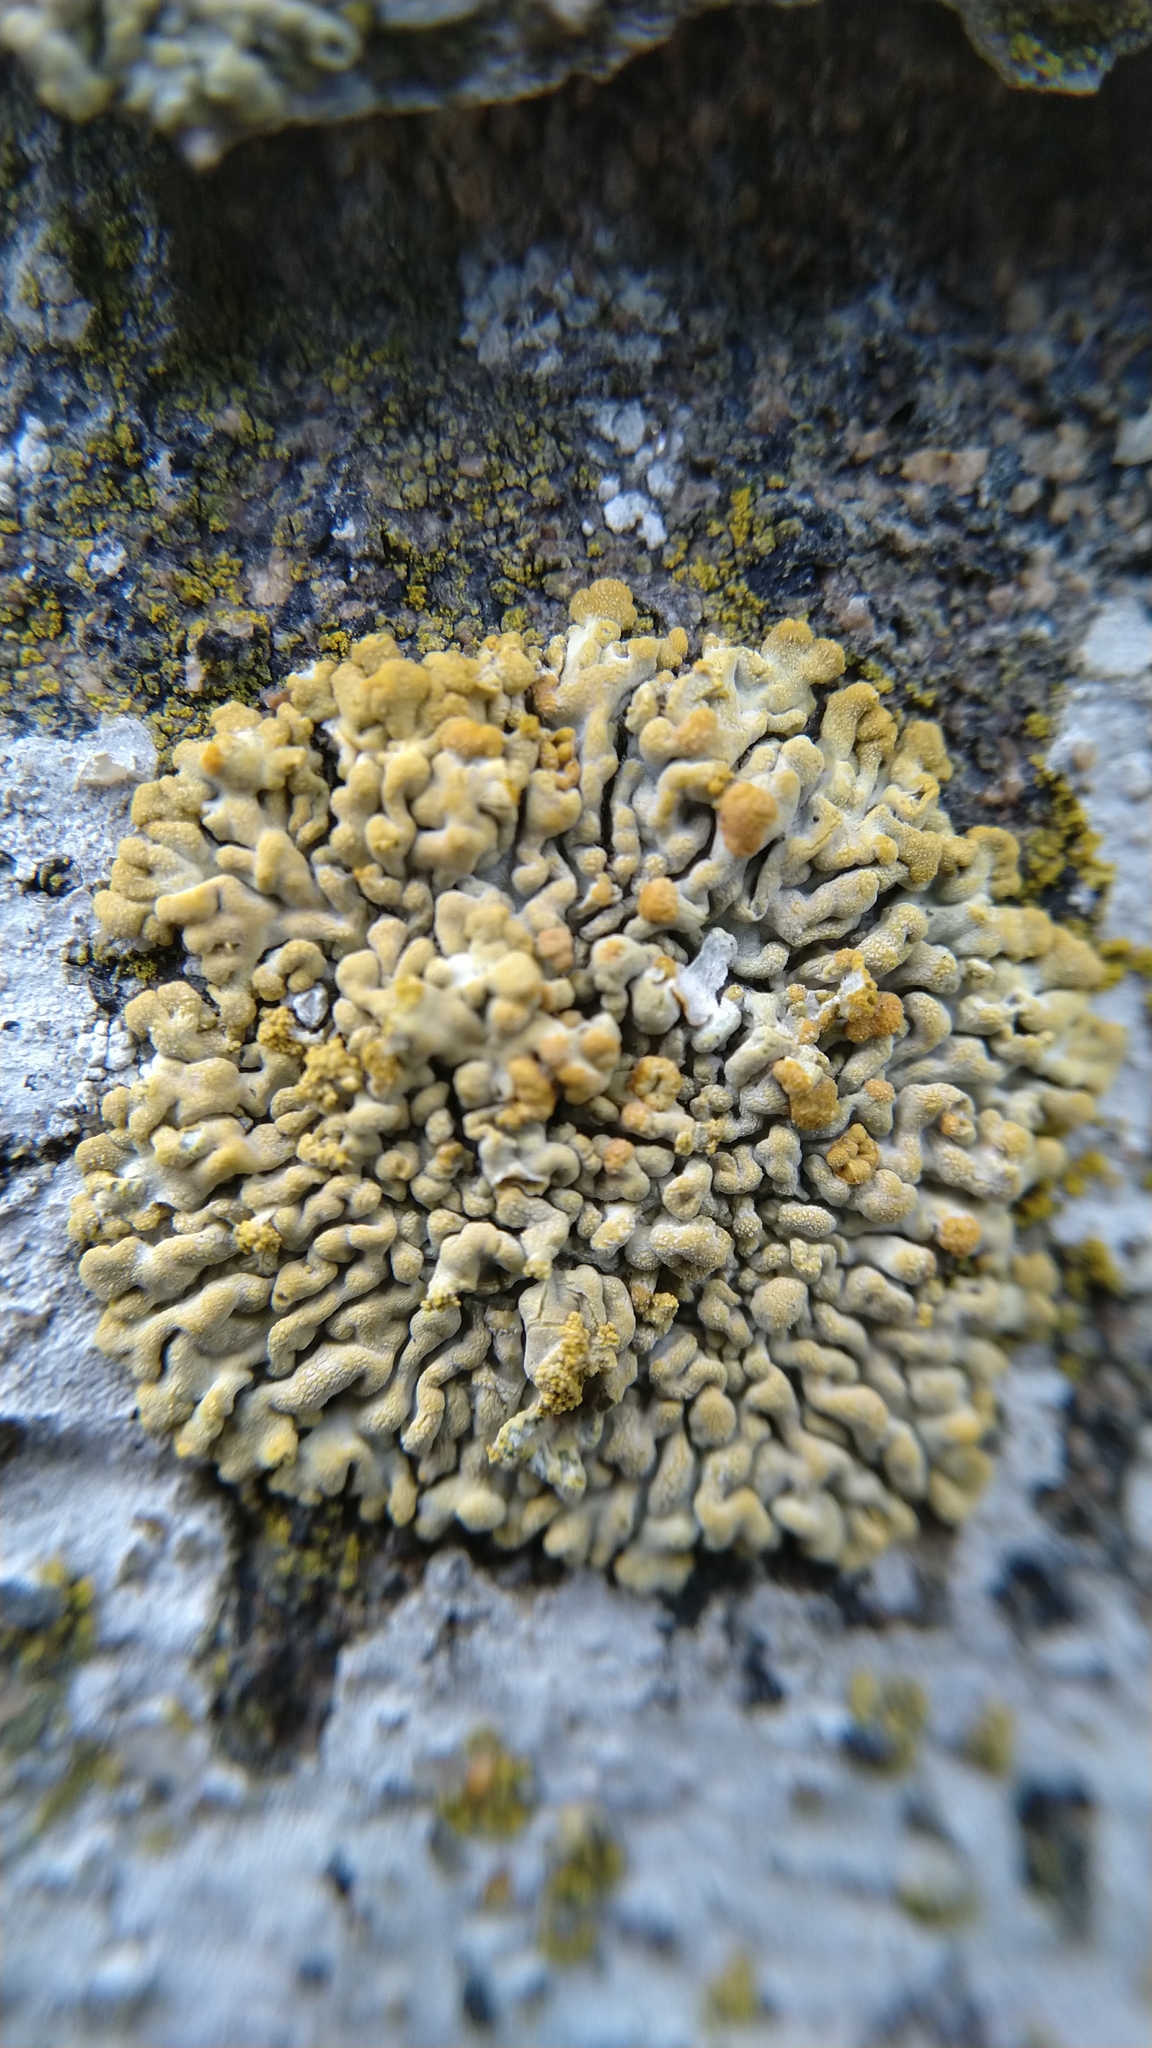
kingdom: Fungi
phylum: Ascomycota
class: Lecanoromycetes
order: Teloschistales
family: Teloschistaceae
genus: Calogaya
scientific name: Calogaya decipiens
